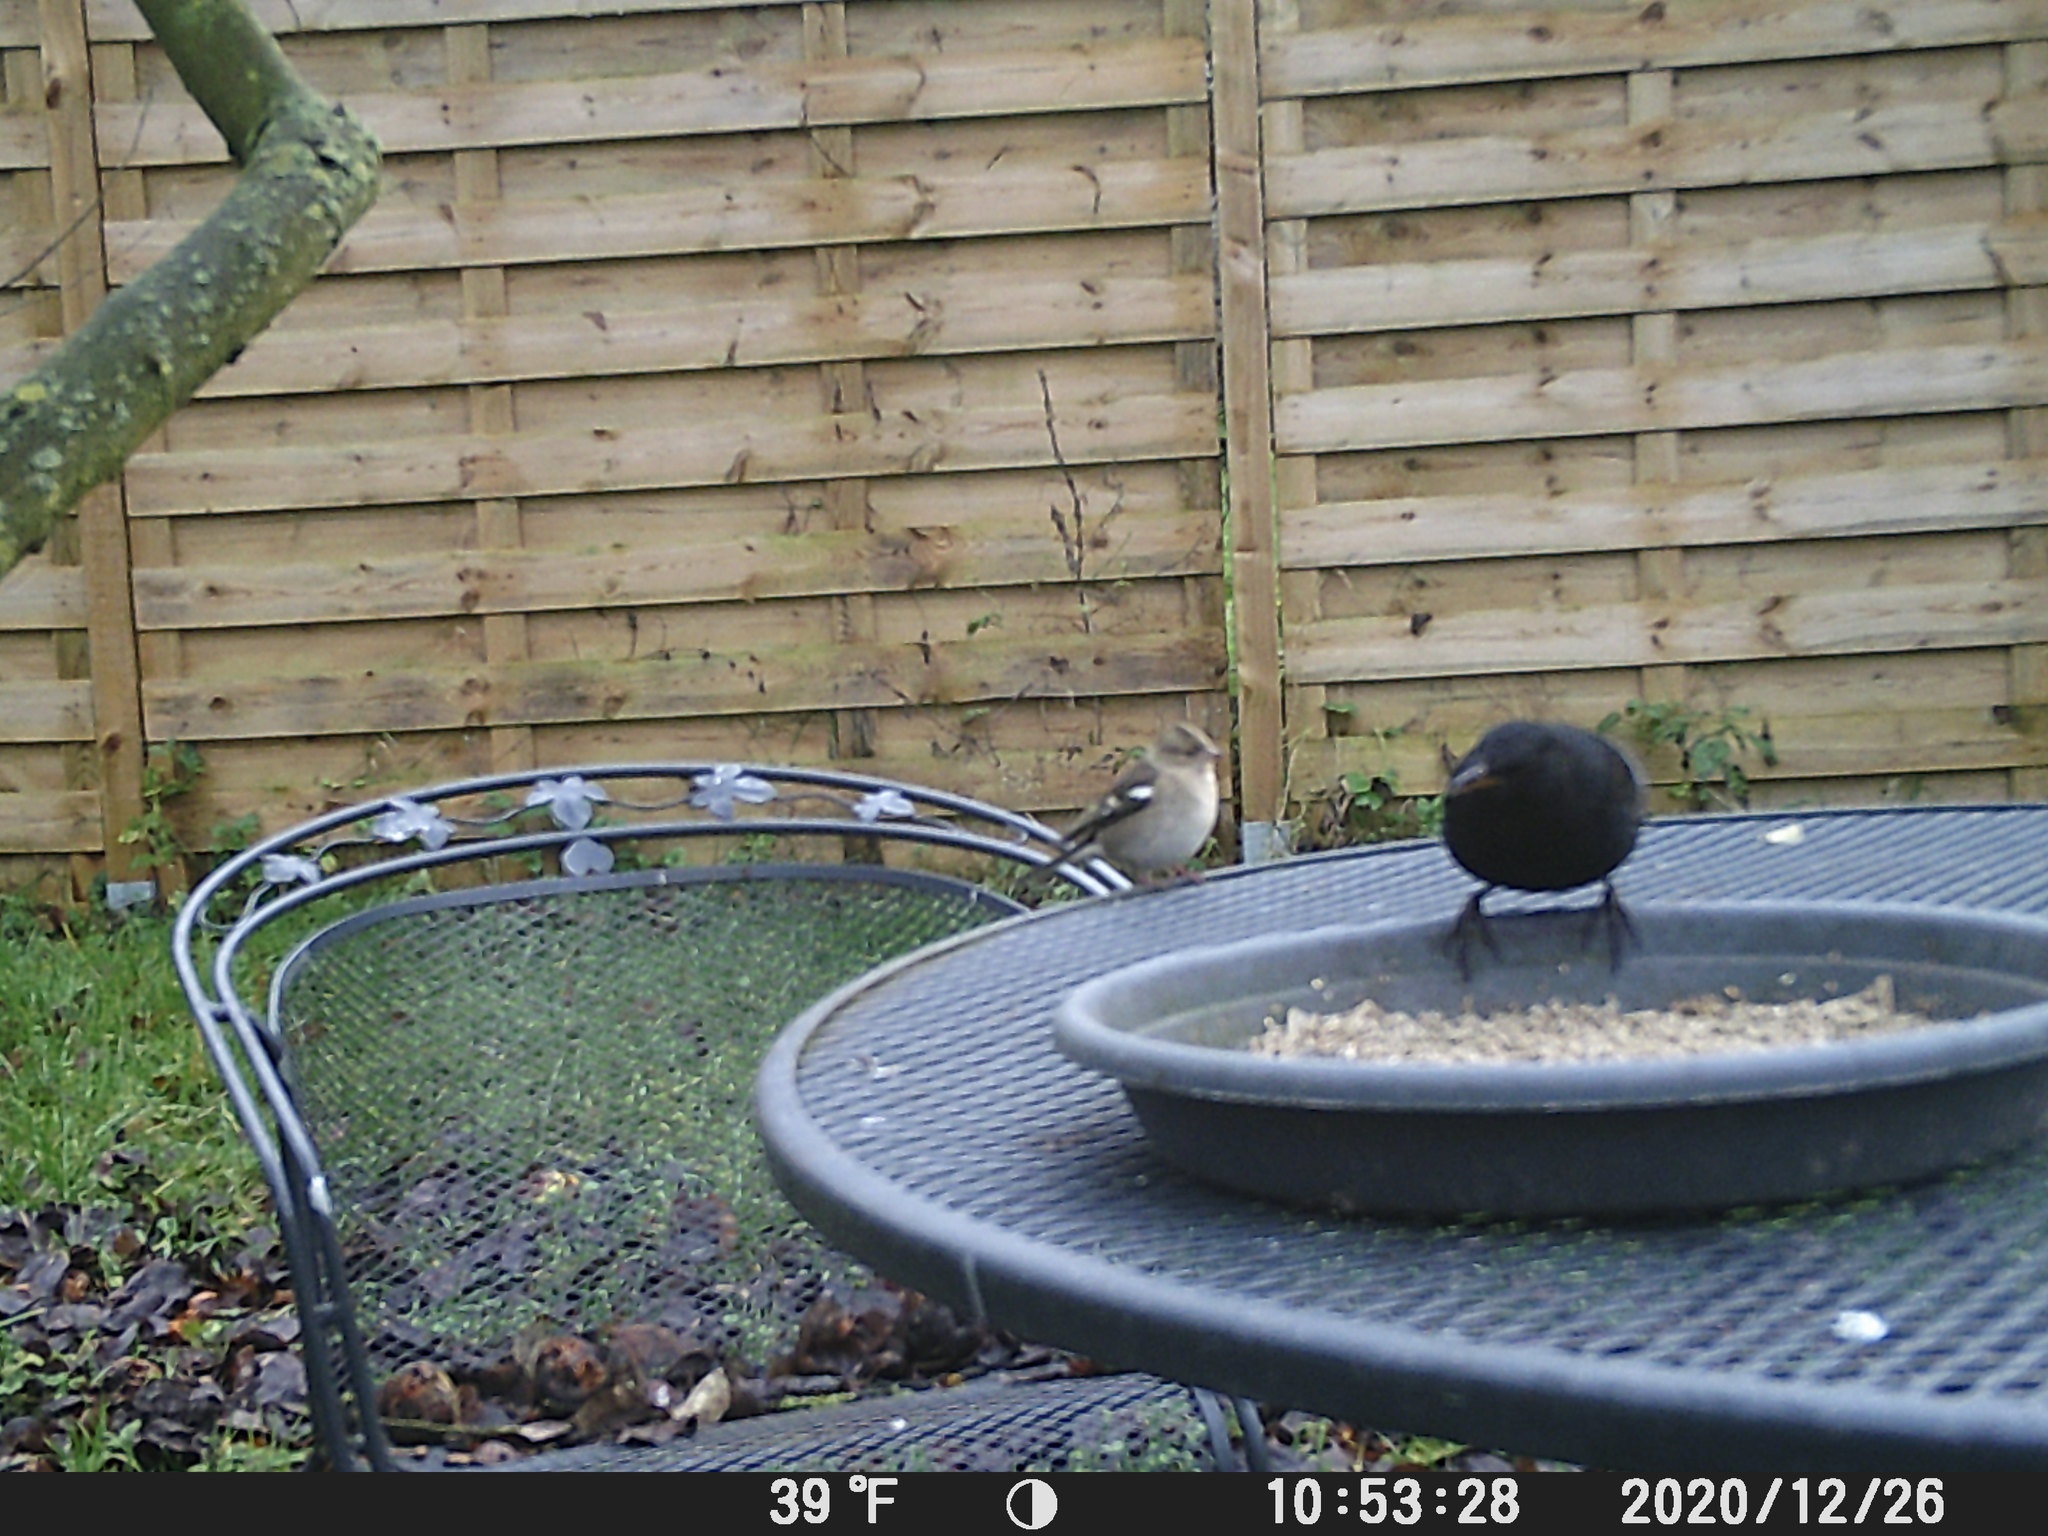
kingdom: Animalia
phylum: Chordata
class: Aves
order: Passeriformes
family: Fringillidae
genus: Fringilla
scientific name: Fringilla coelebs
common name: Common chaffinch
